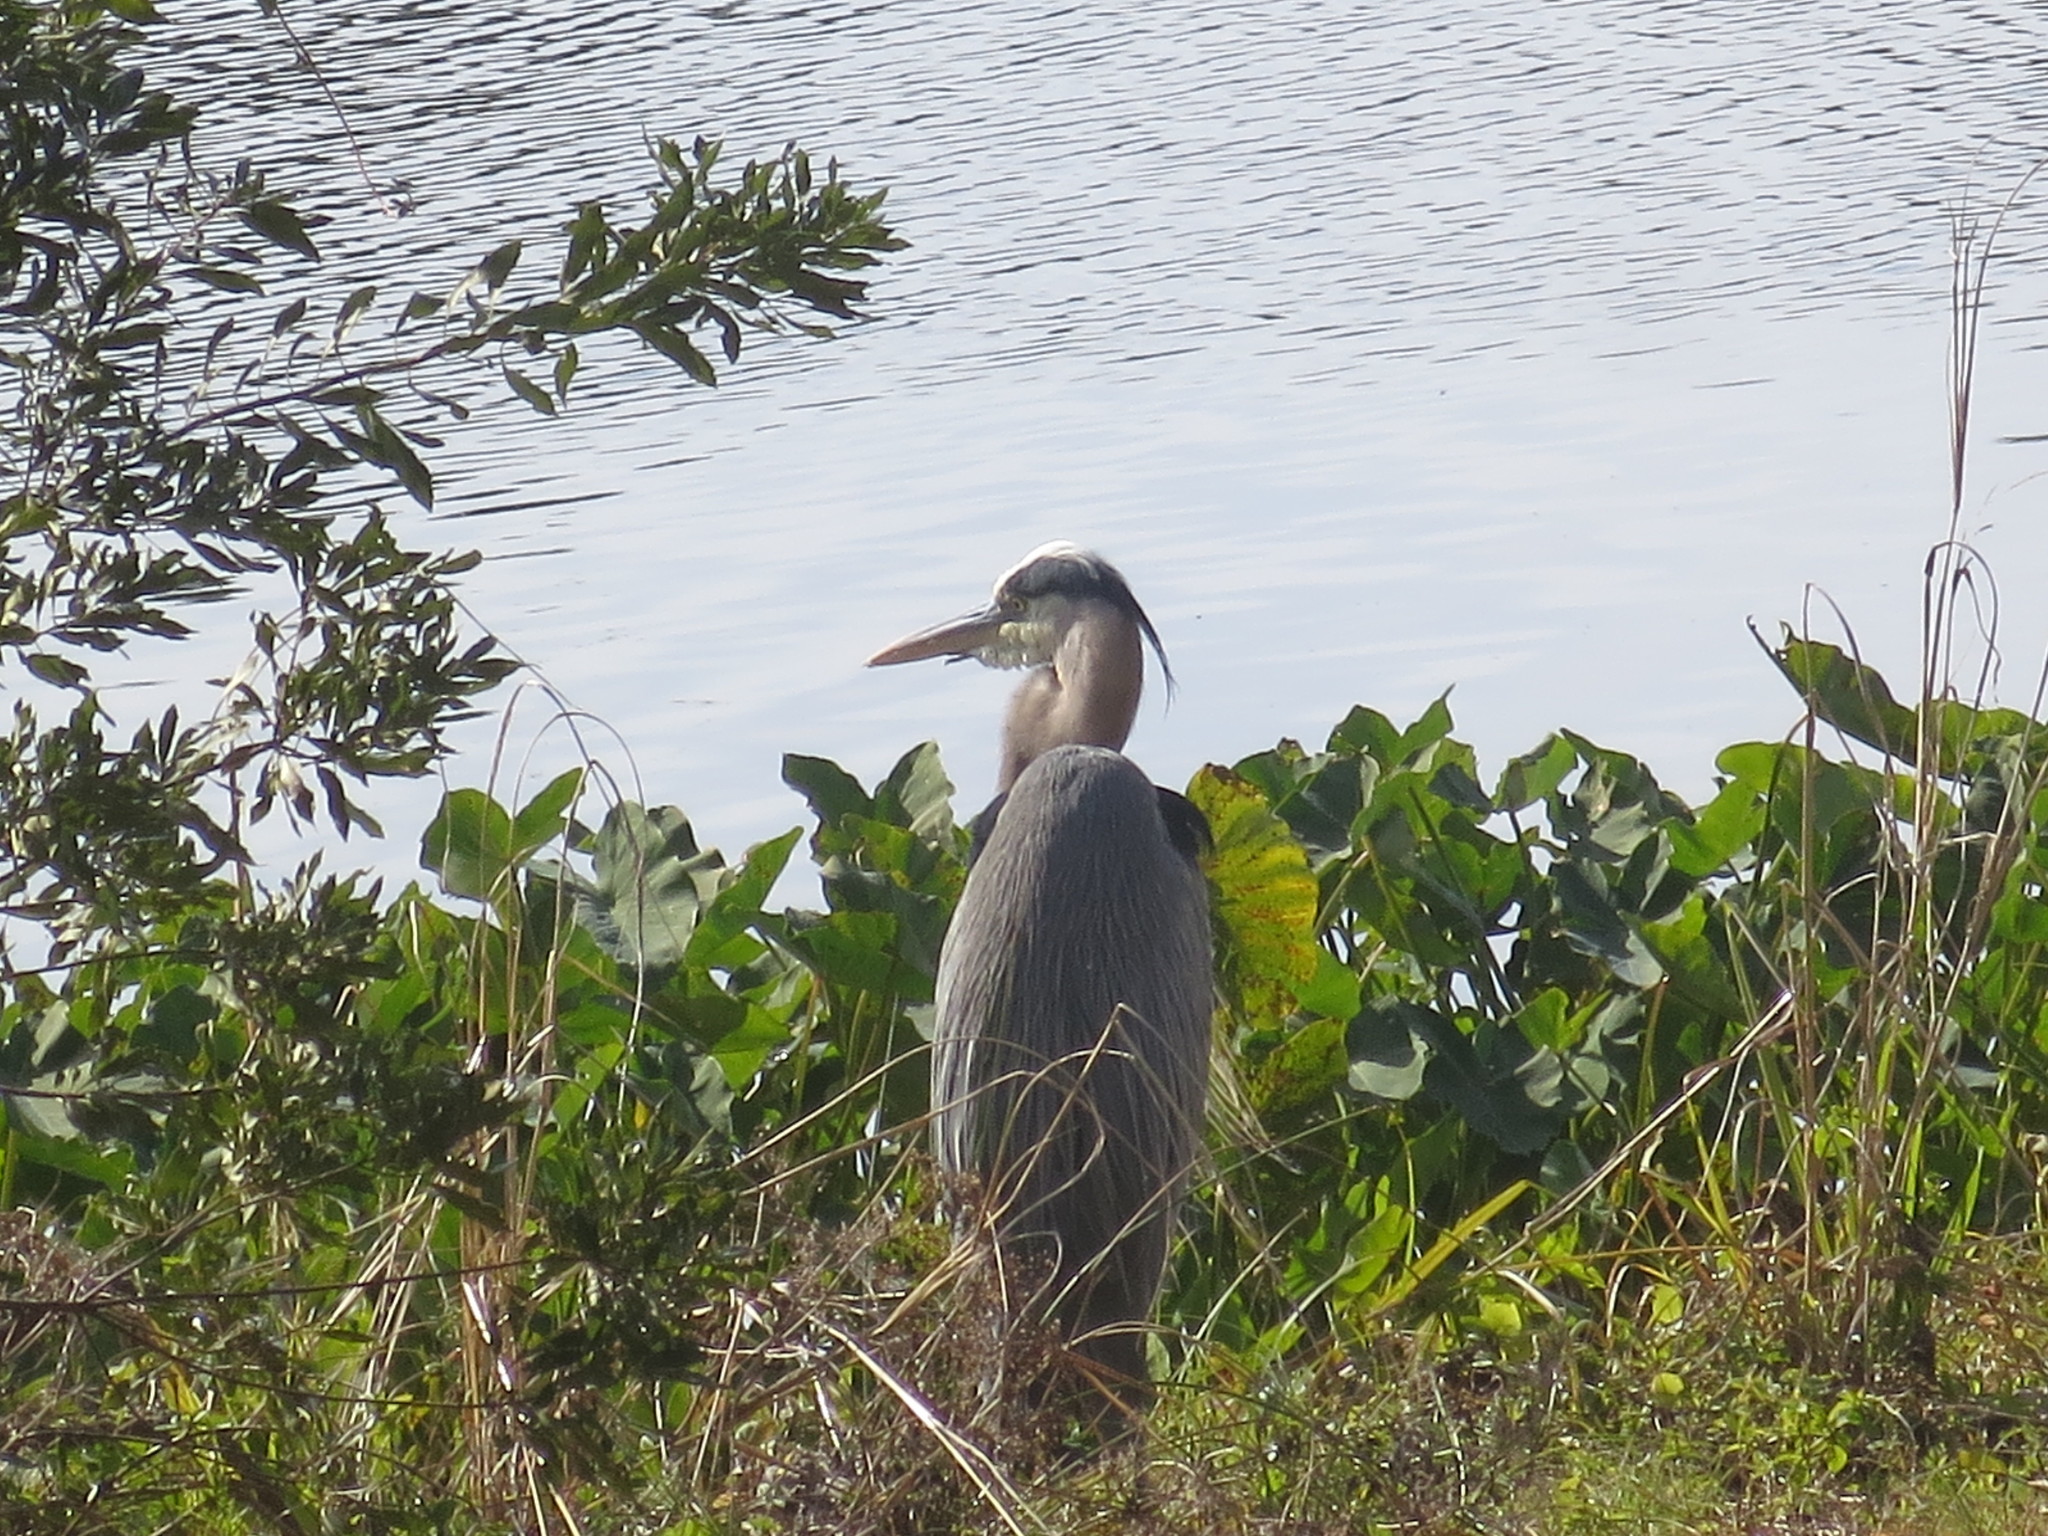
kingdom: Animalia
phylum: Chordata
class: Aves
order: Pelecaniformes
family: Ardeidae
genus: Ardea
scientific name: Ardea herodias
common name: Great blue heron
